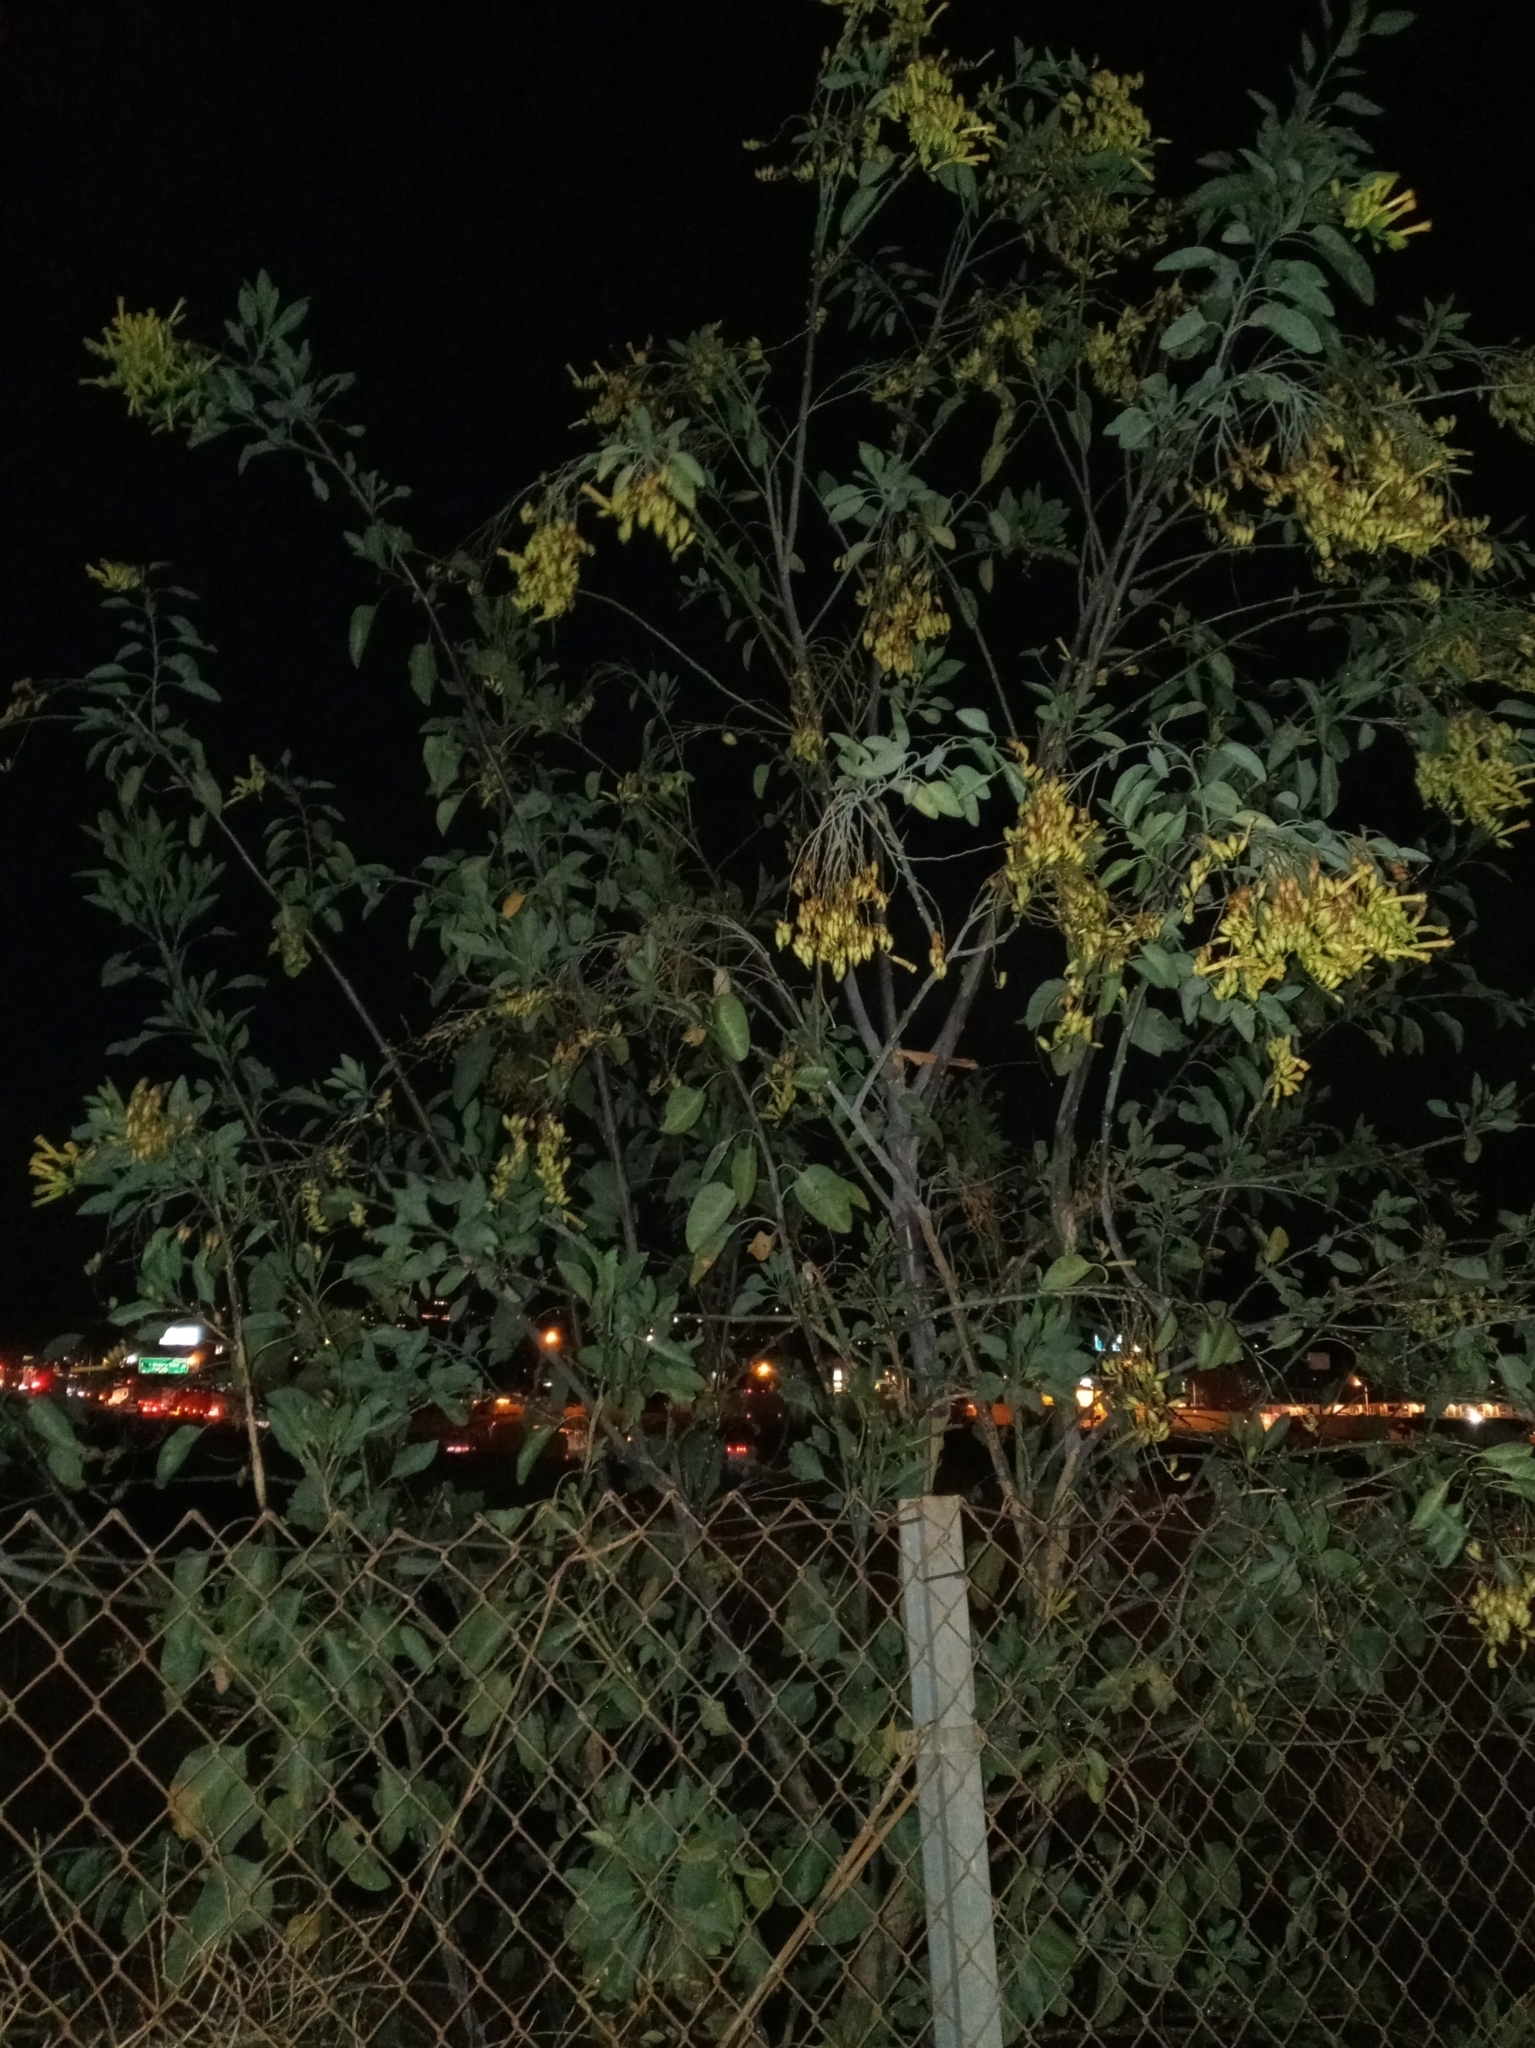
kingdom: Plantae
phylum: Tracheophyta
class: Magnoliopsida
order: Solanales
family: Solanaceae
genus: Nicotiana
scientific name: Nicotiana glauca
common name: Tree tobacco
